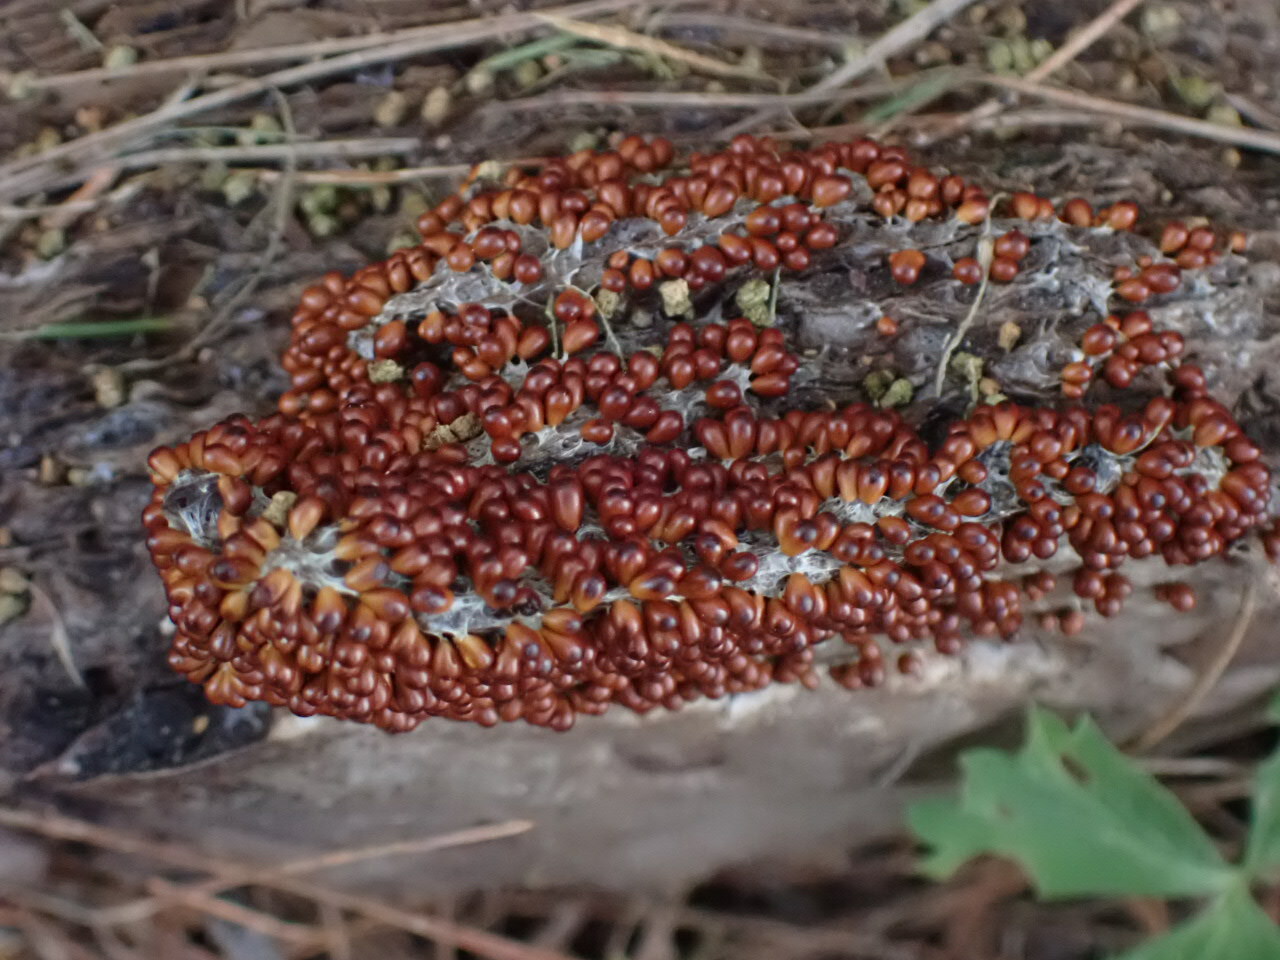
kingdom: Protozoa
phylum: Mycetozoa
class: Myxomycetes
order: Physarales
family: Physaraceae
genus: Leocarpus
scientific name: Leocarpus fragilis
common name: Insect-egg slime
